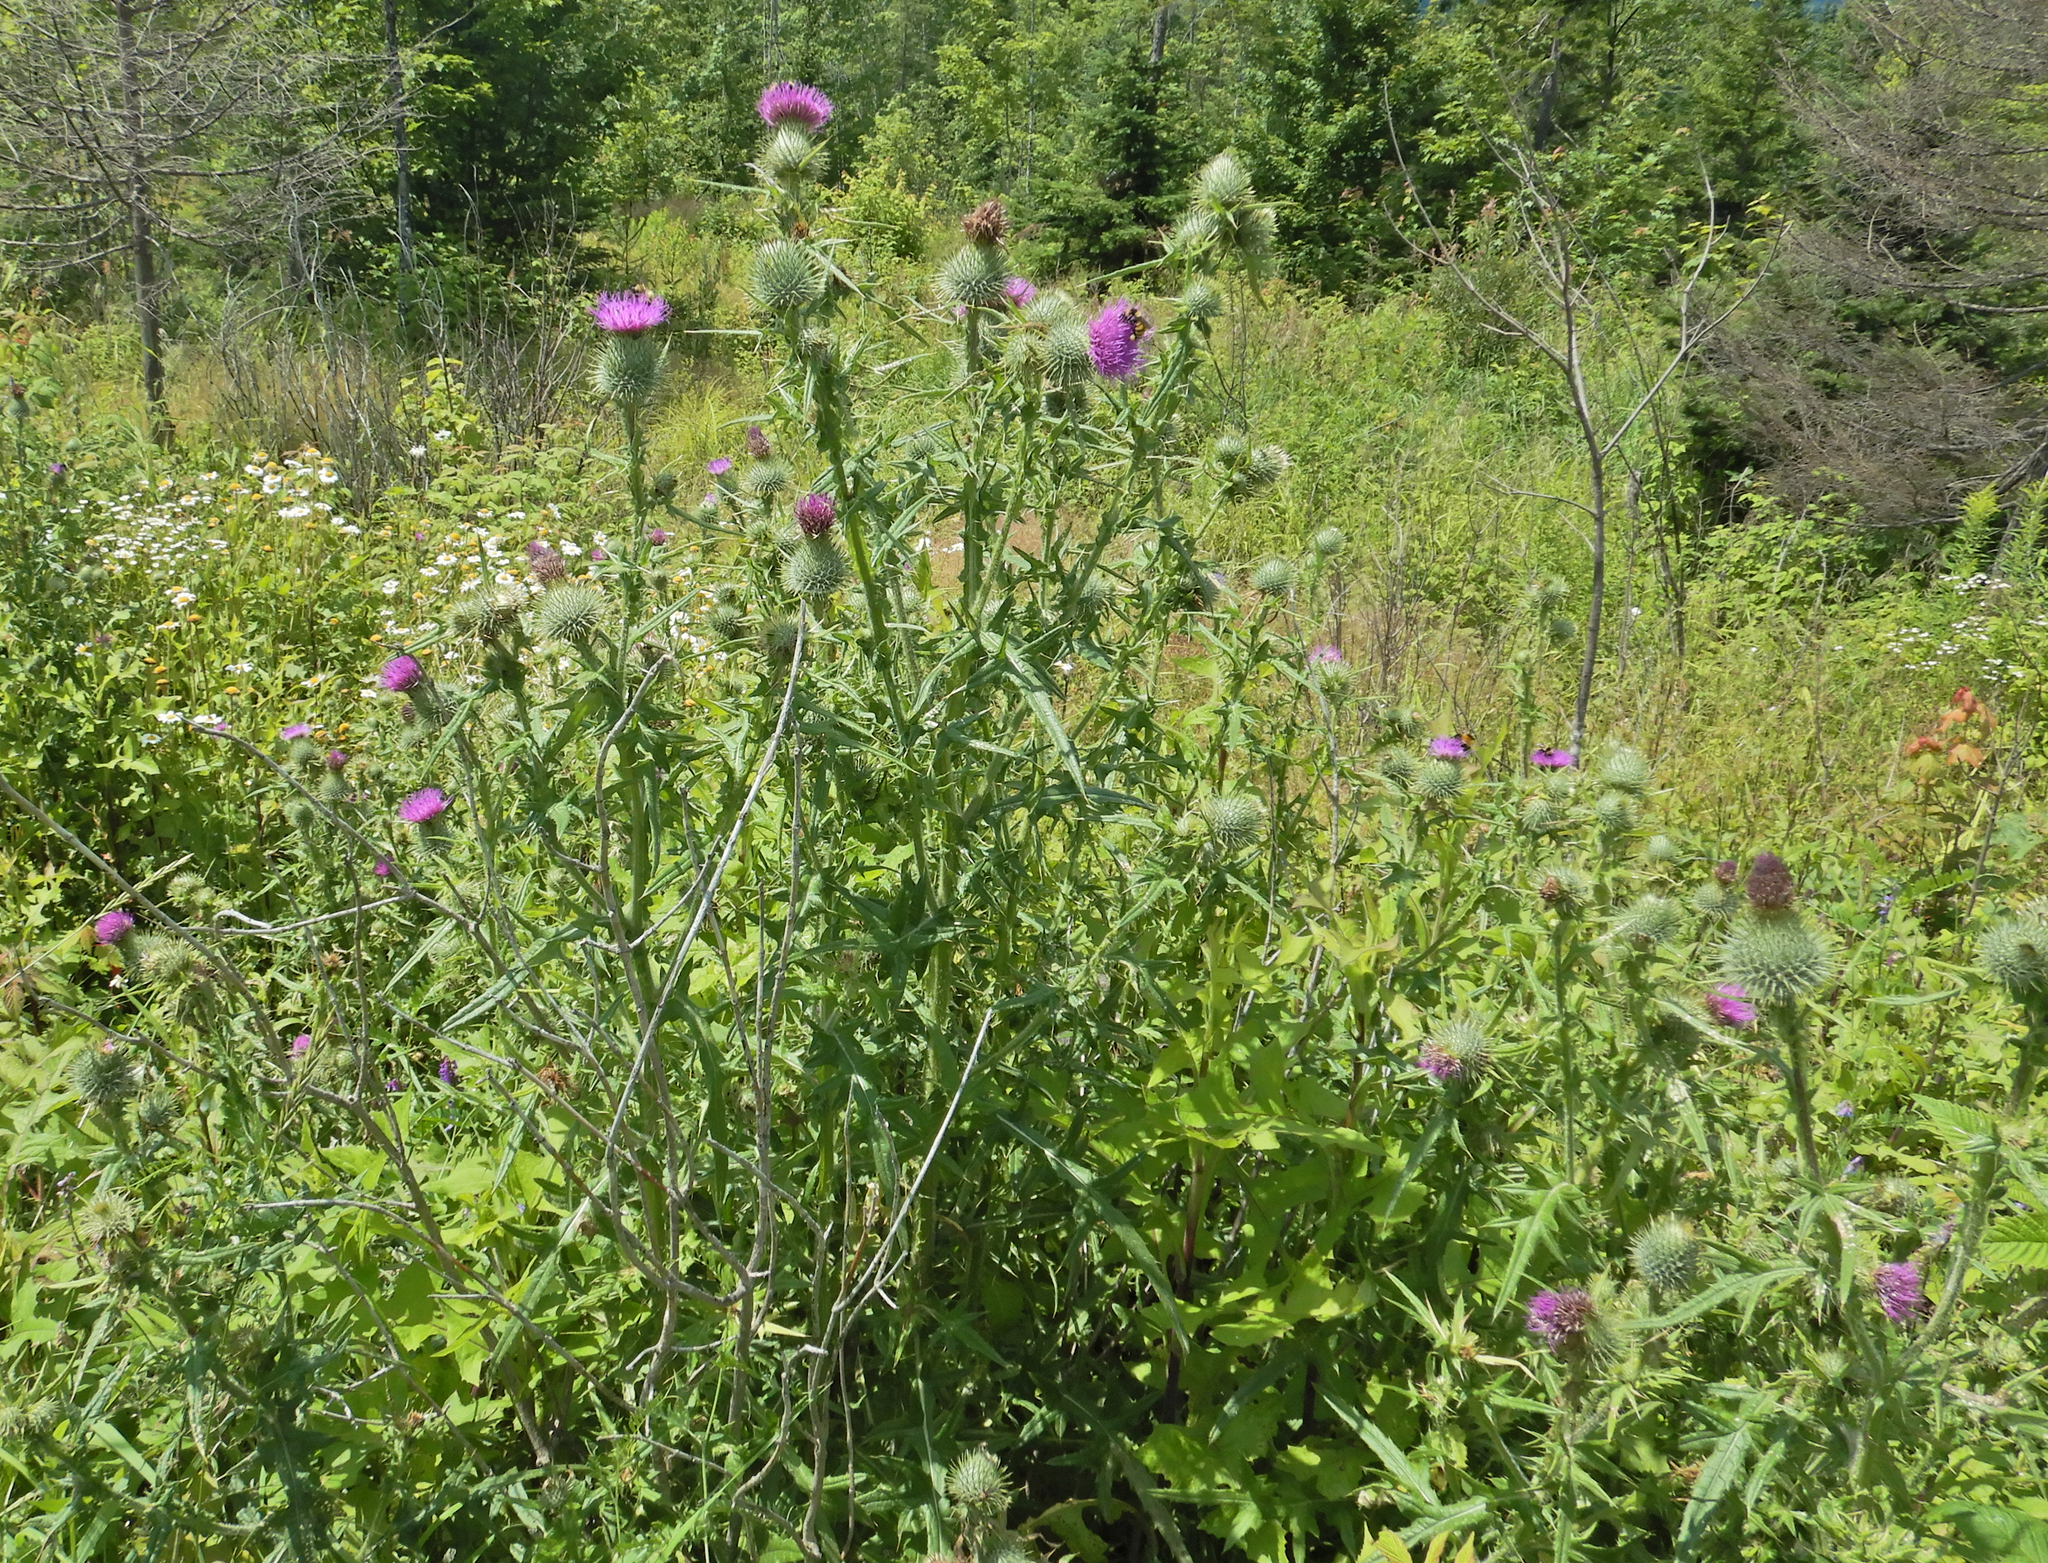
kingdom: Plantae
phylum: Tracheophyta
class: Magnoliopsida
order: Asterales
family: Asteraceae
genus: Cirsium
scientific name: Cirsium vulgare
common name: Bull thistle
